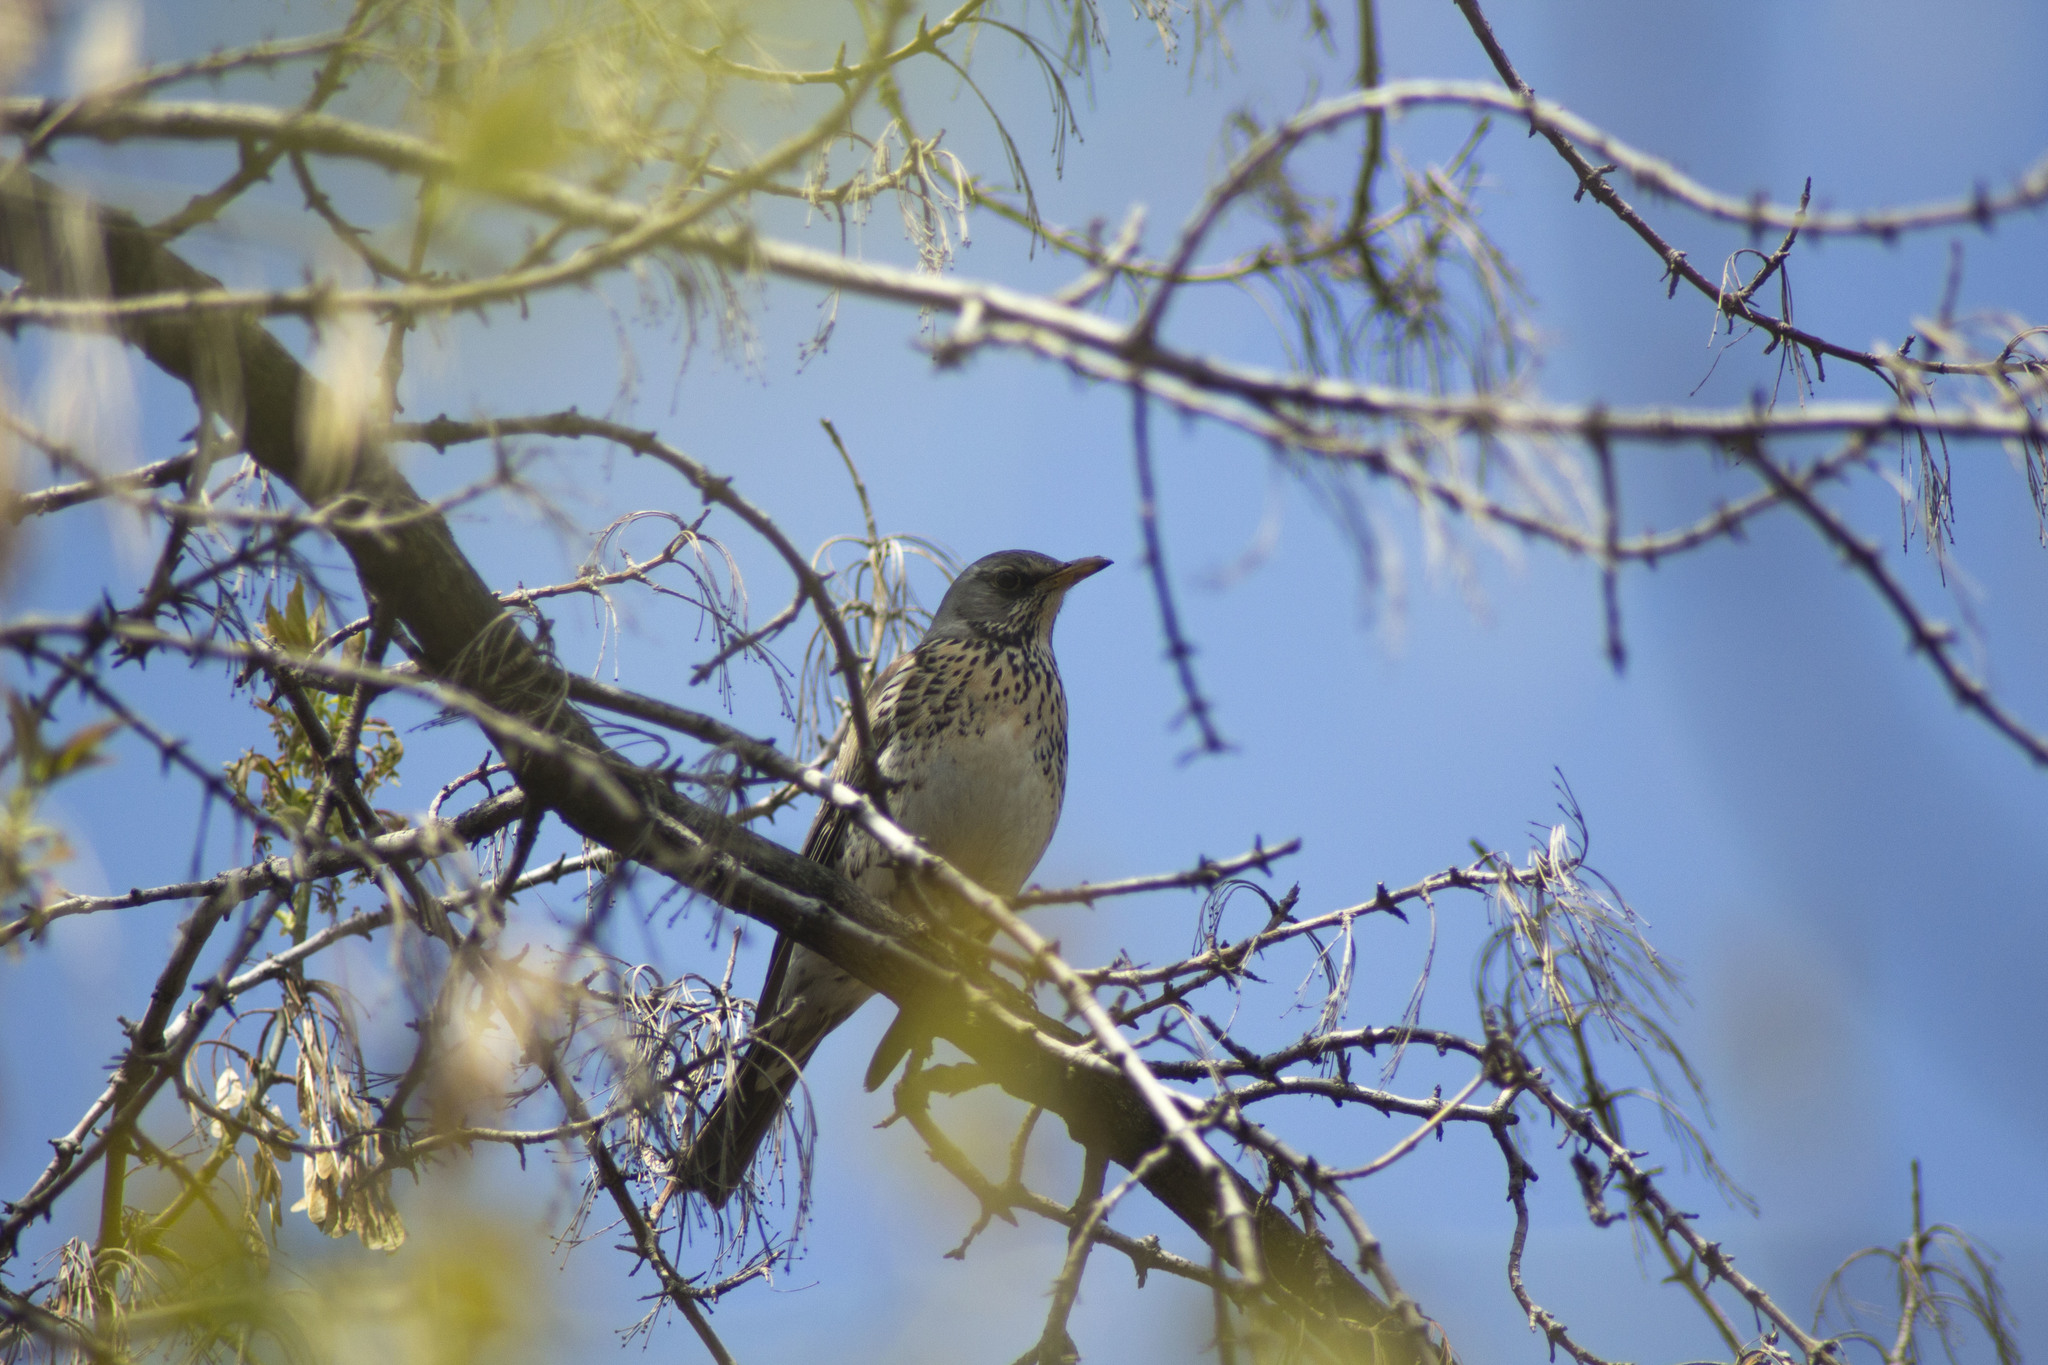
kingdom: Animalia
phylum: Chordata
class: Aves
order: Passeriformes
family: Turdidae
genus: Turdus
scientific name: Turdus pilaris
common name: Fieldfare
